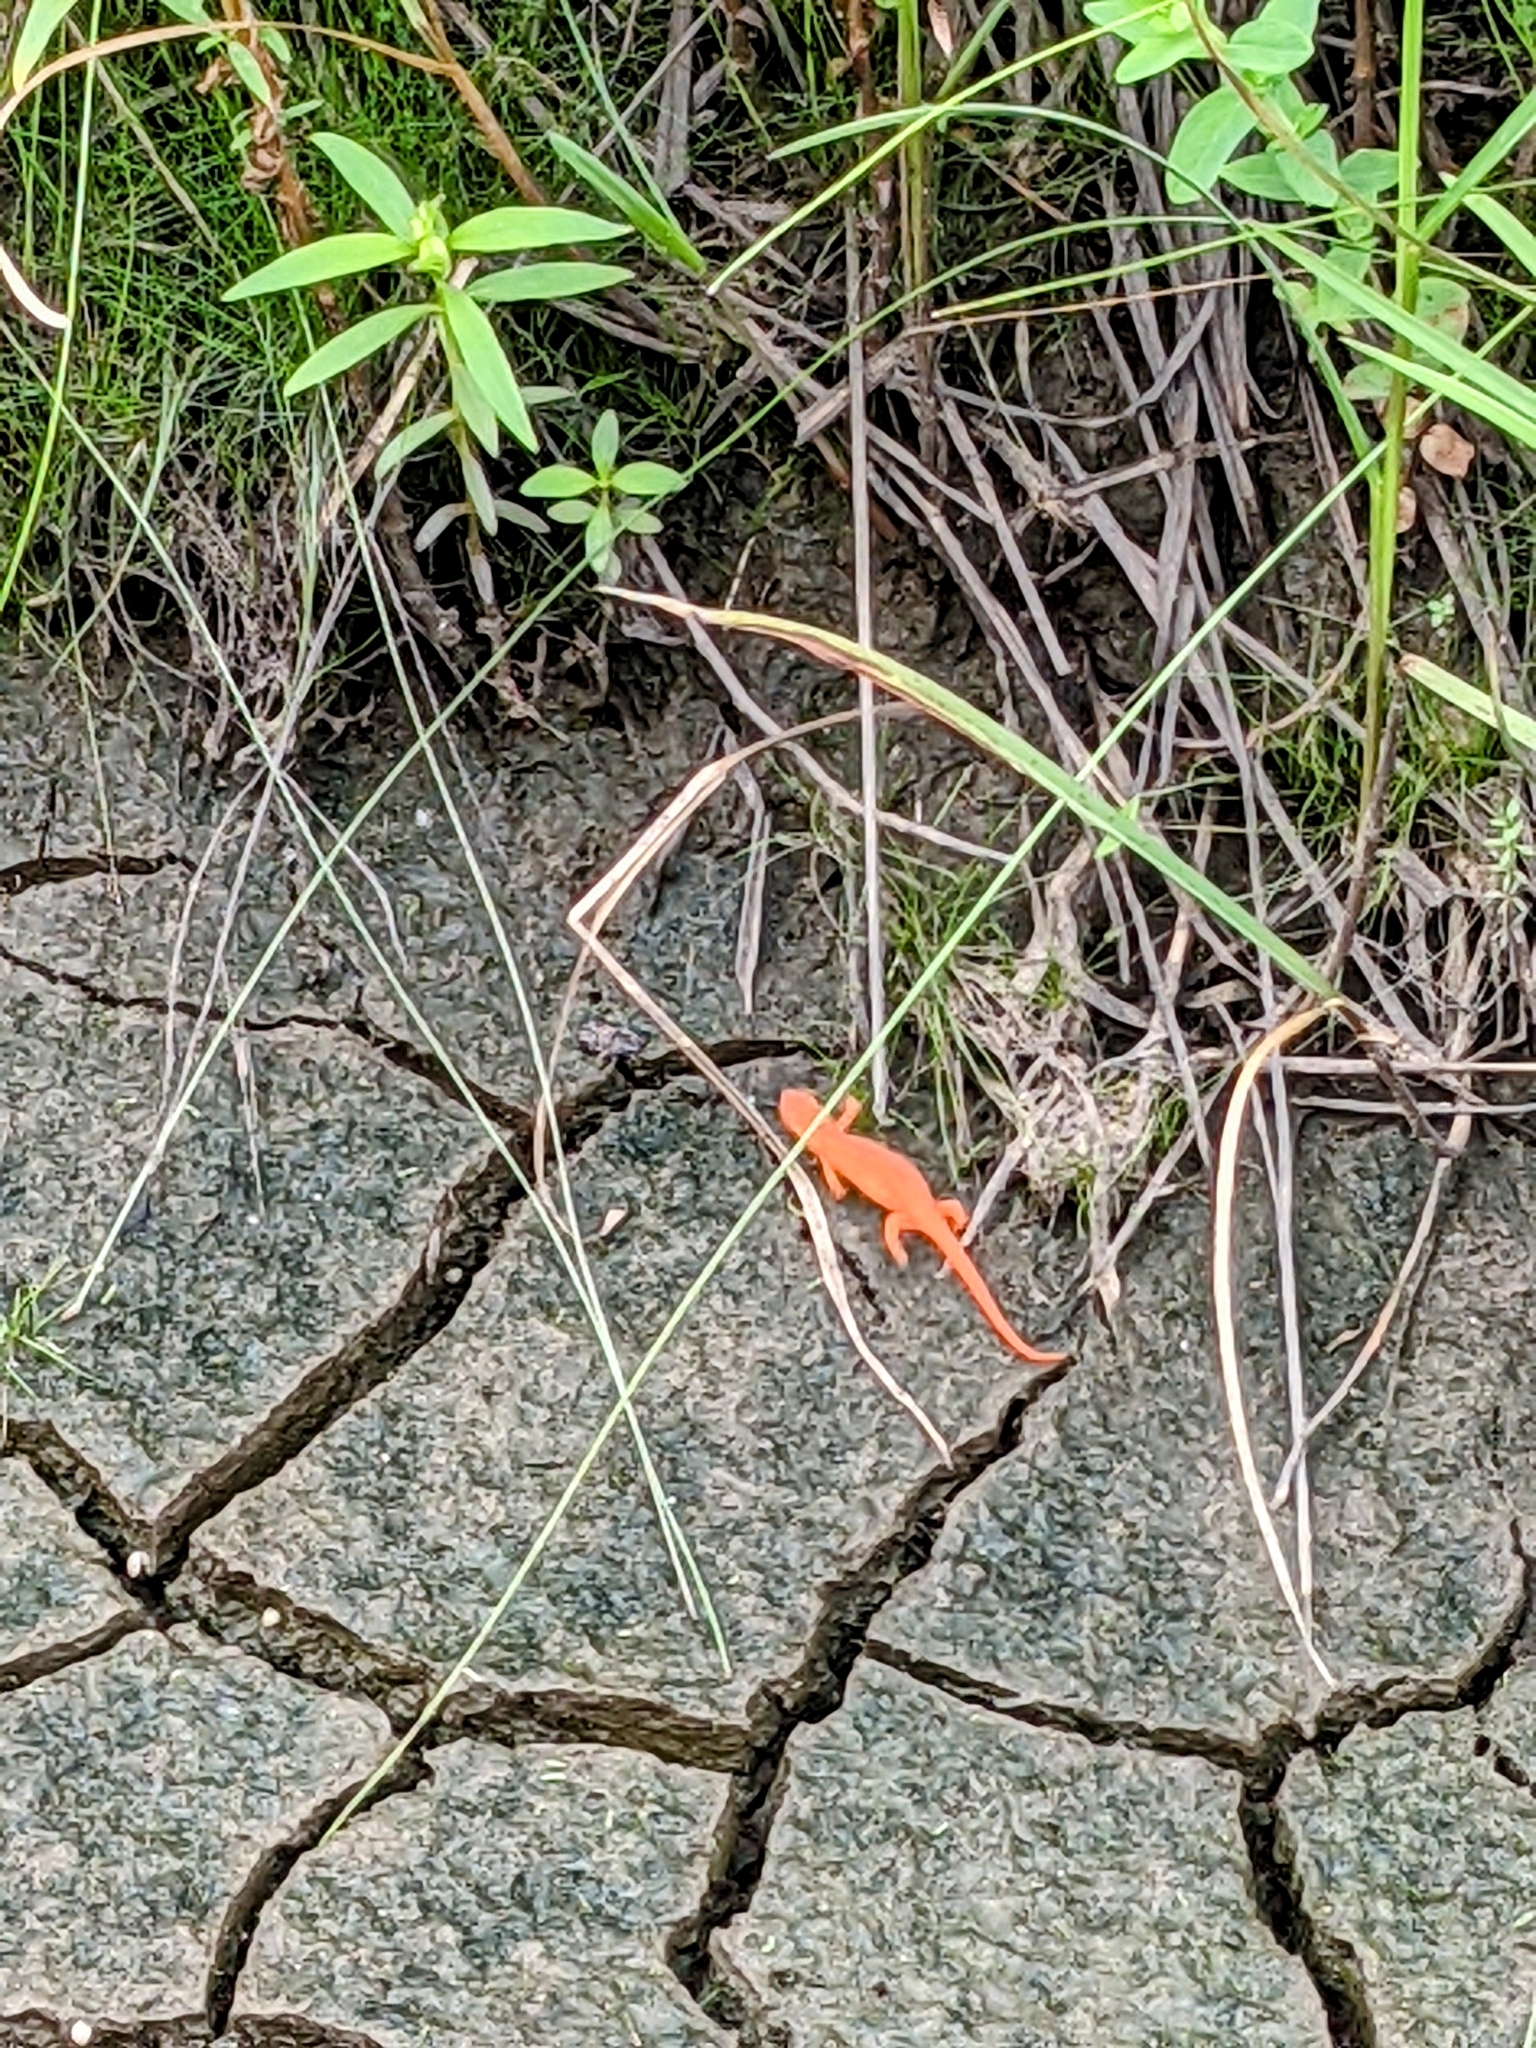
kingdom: Animalia
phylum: Chordata
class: Amphibia
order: Caudata
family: Salamandridae
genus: Notophthalmus
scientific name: Notophthalmus viridescens
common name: Eastern newt
